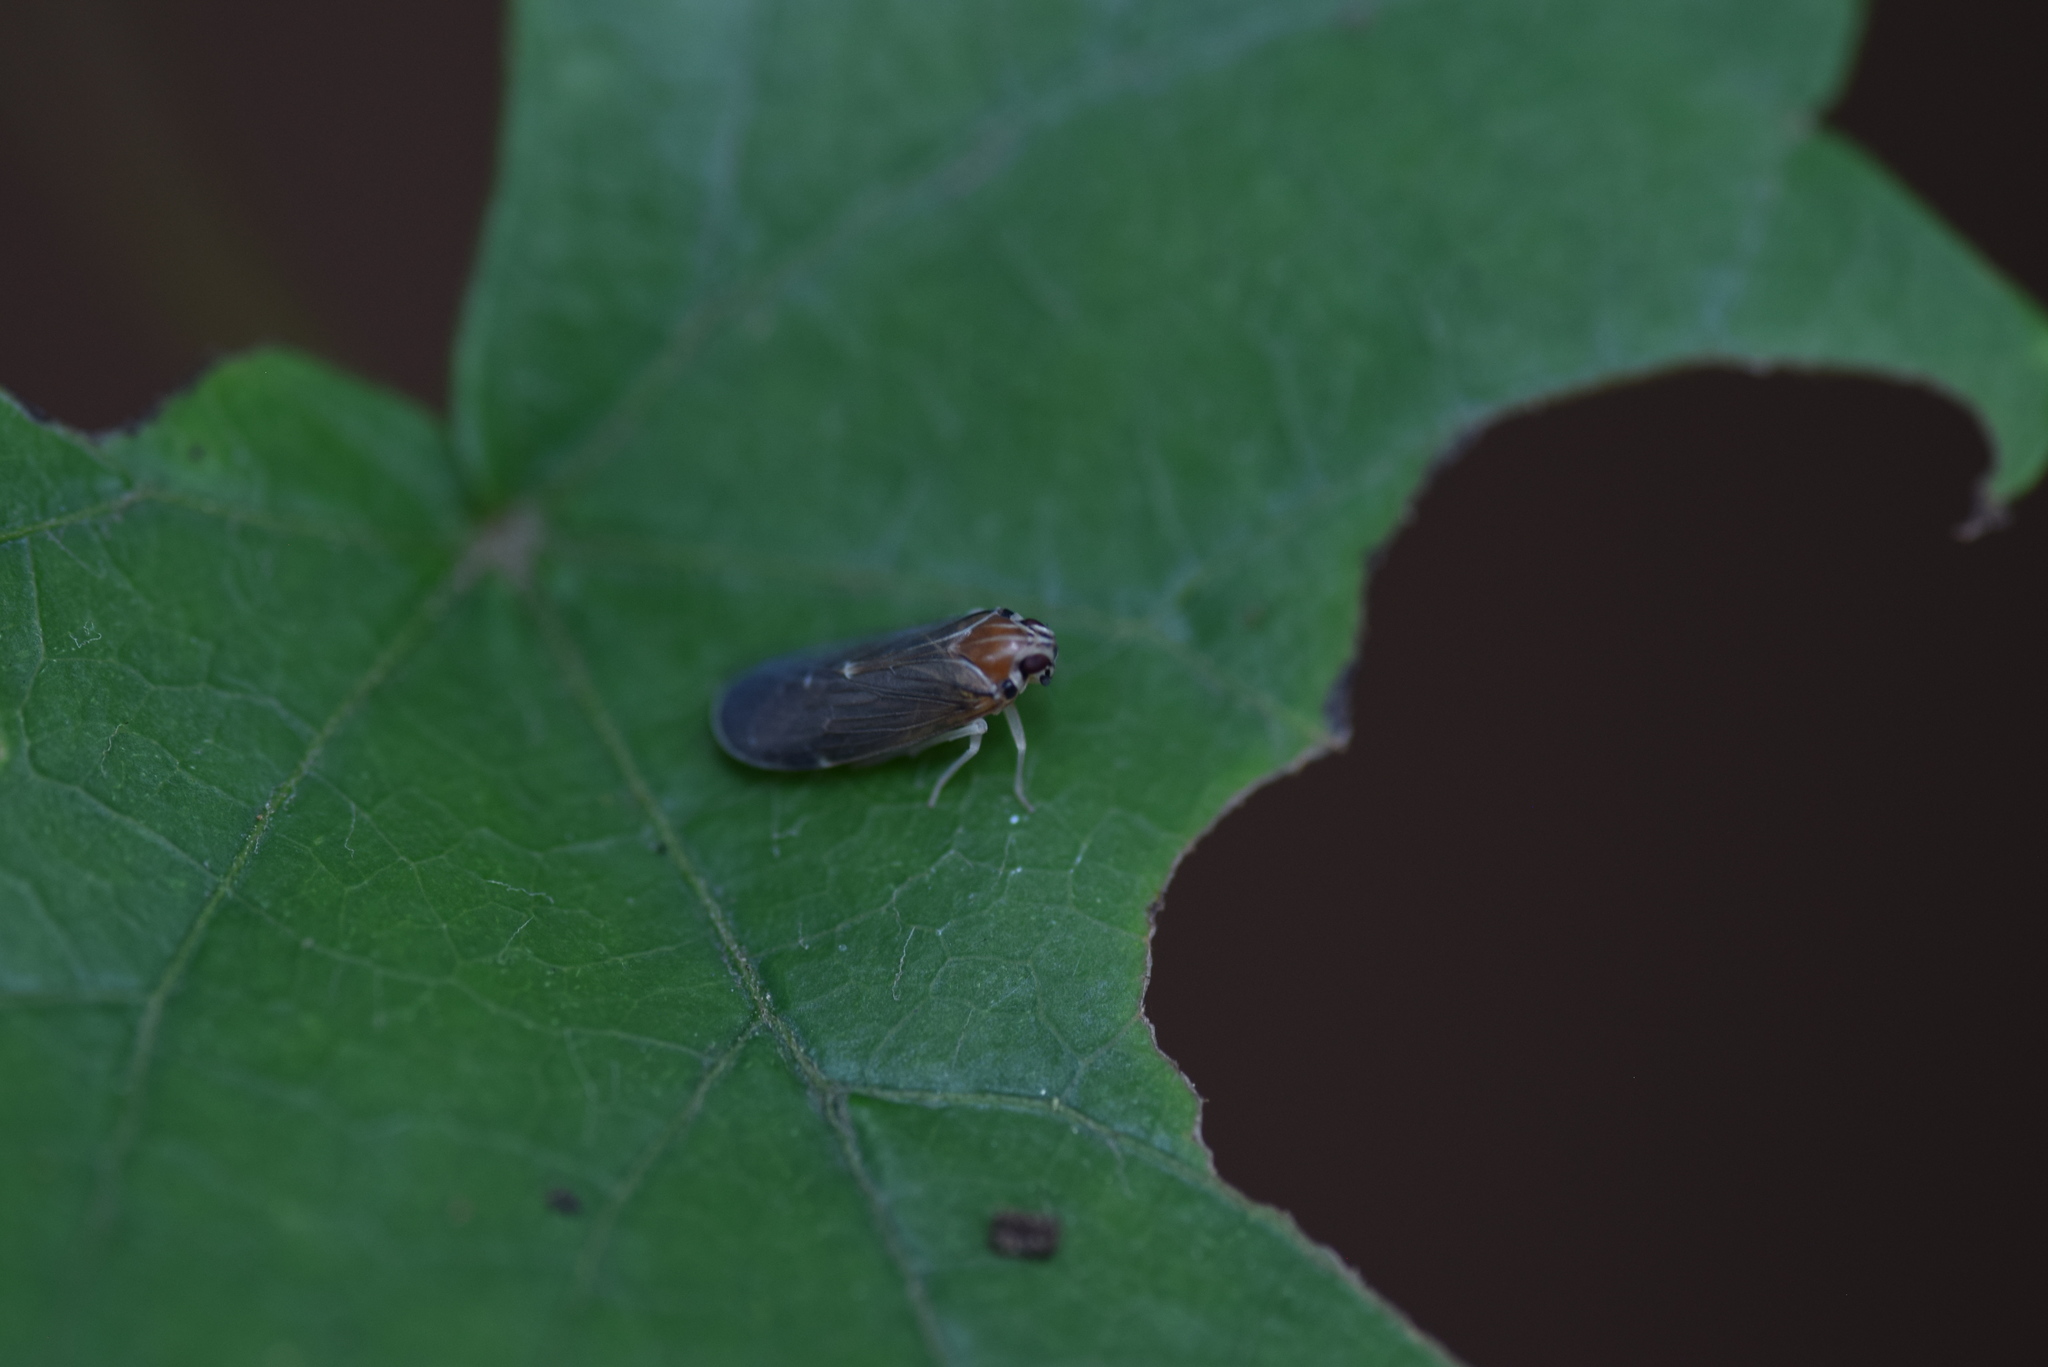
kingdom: Animalia
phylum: Arthropoda
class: Insecta
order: Hemiptera
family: Achilidae
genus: Synecdoche
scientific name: Synecdoche impunctata
